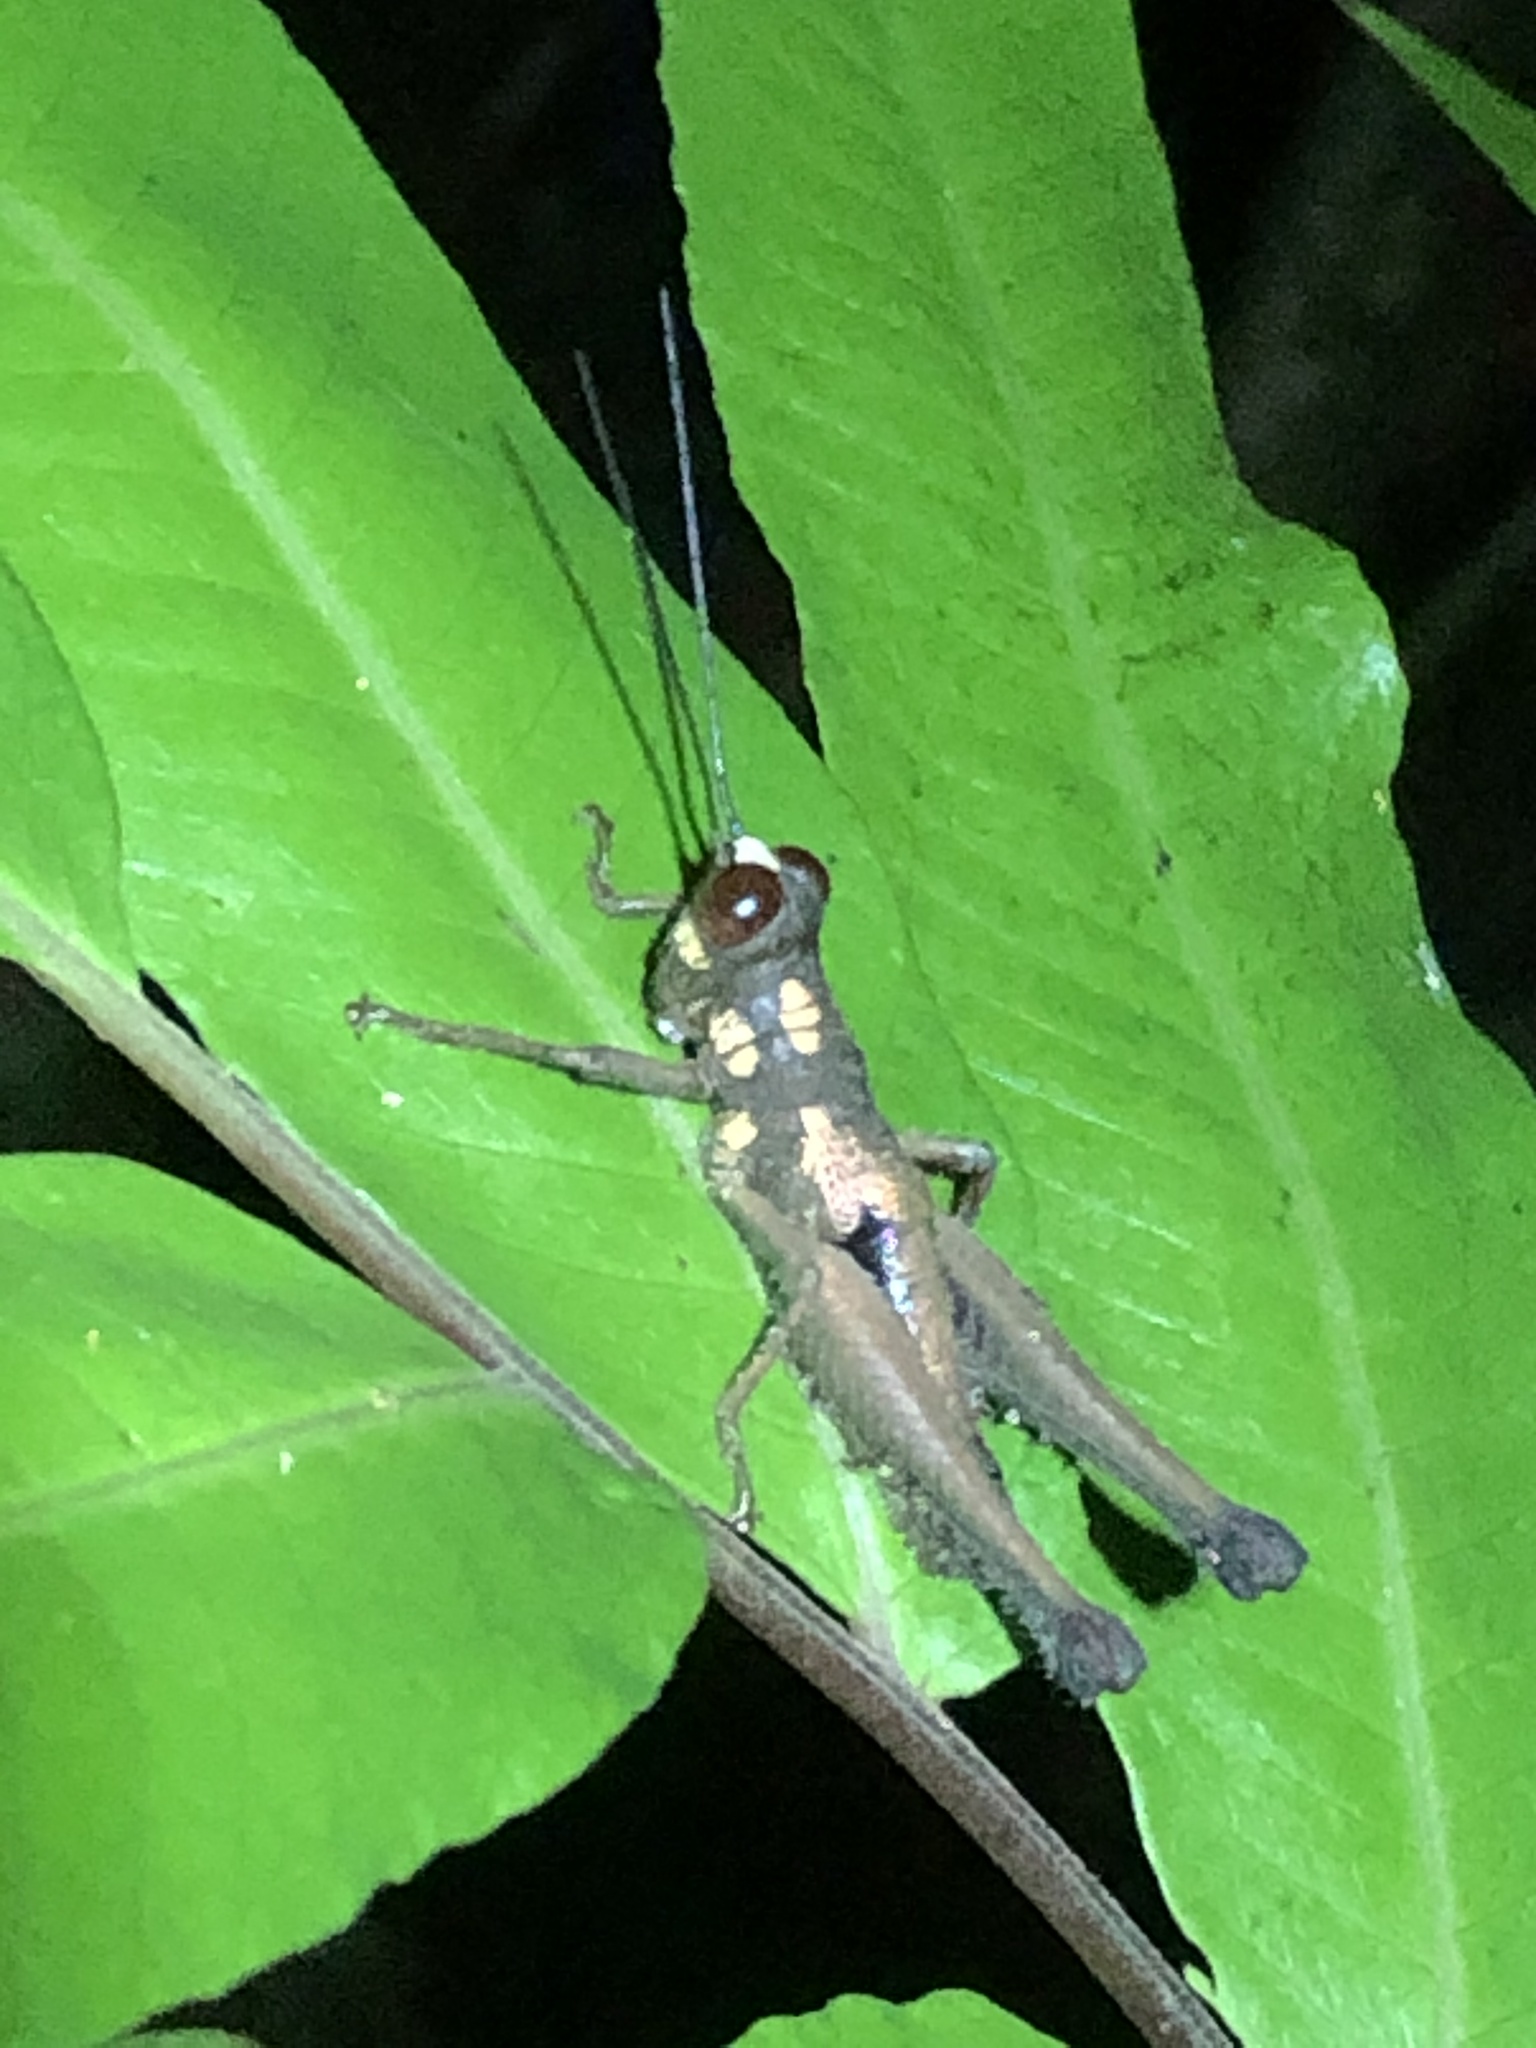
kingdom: Animalia
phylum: Arthropoda
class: Insecta
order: Orthoptera
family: Acrididae
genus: Stenelutracris
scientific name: Stenelutracris lignicola
